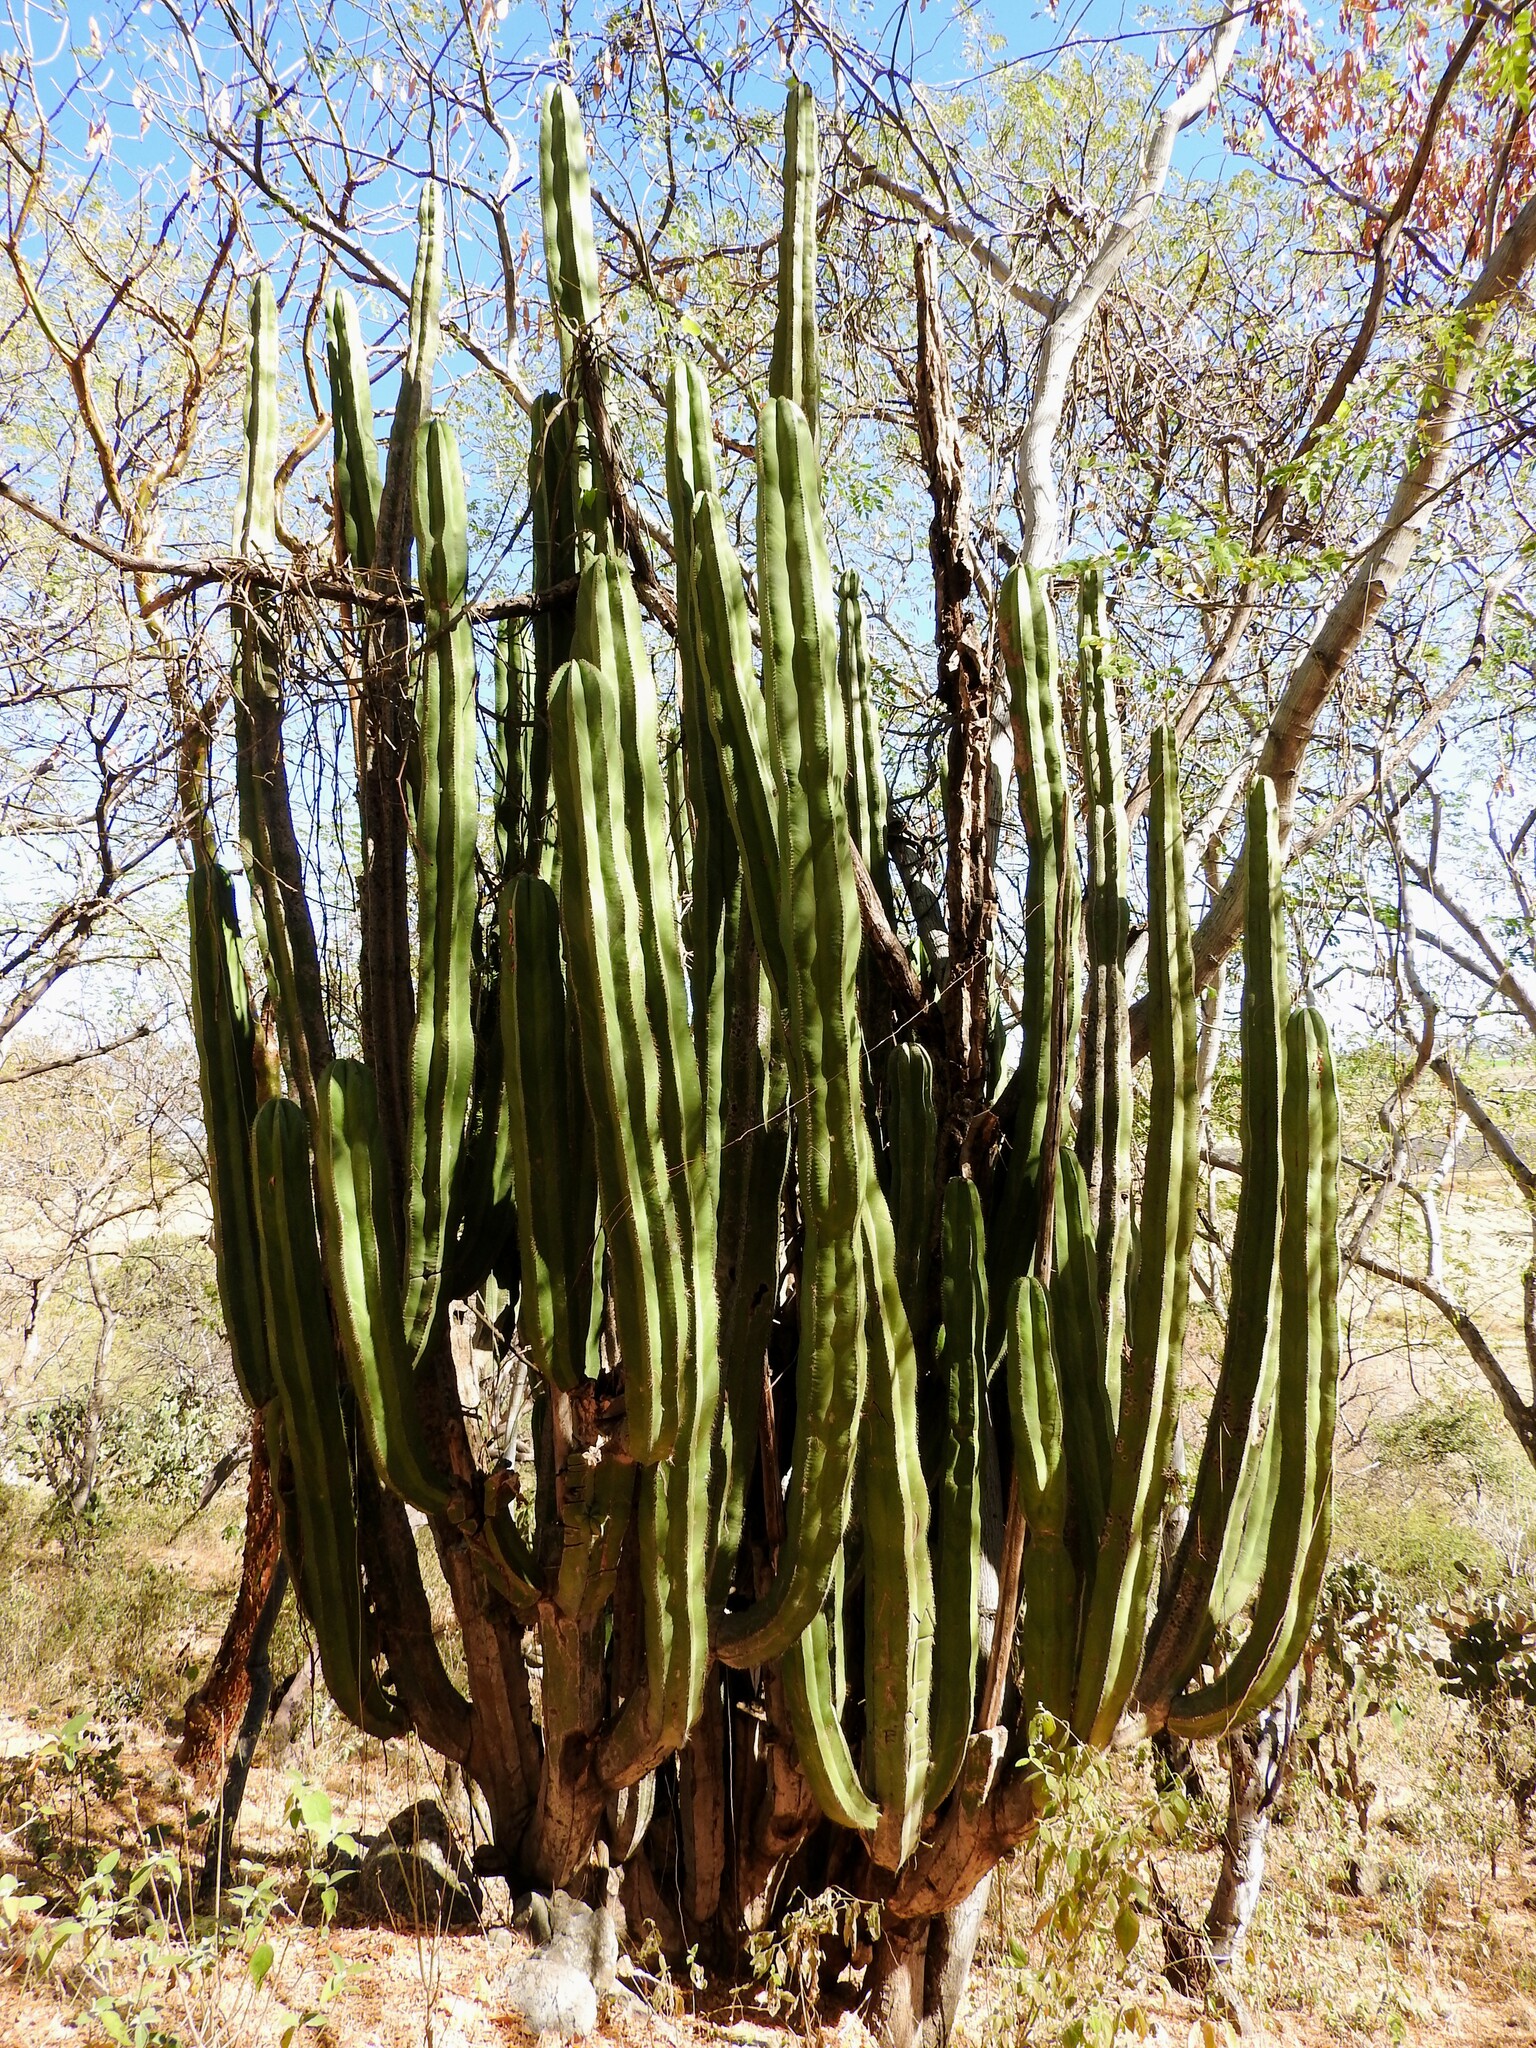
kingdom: Plantae
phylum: Tracheophyta
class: Magnoliopsida
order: Caryophyllales
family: Cactaceae
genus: Stenocereus
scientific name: Stenocereus dumortieri
